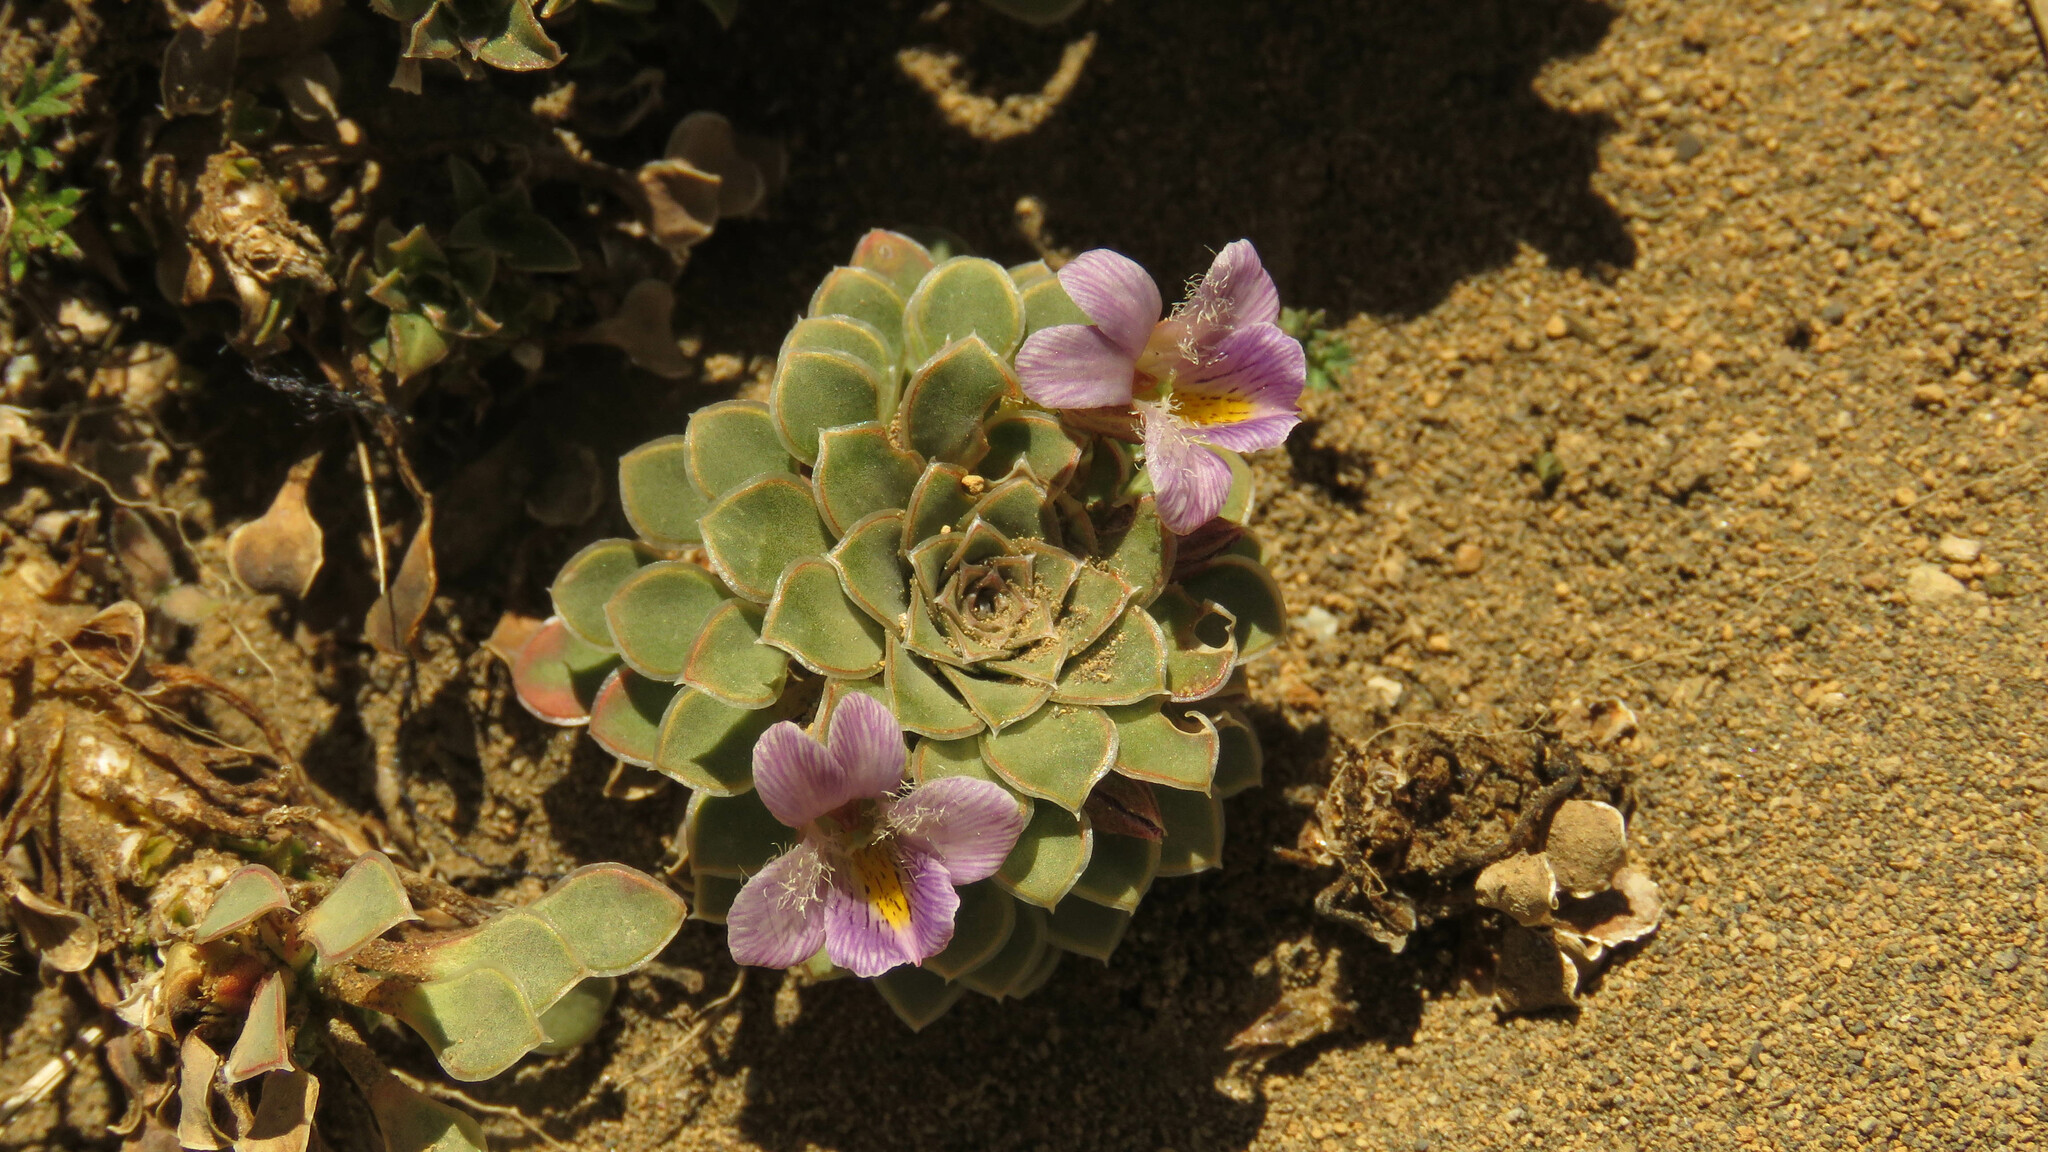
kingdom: Plantae
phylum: Tracheophyta
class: Magnoliopsida
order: Malpighiales
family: Violaceae
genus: Viola
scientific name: Viola petraea
